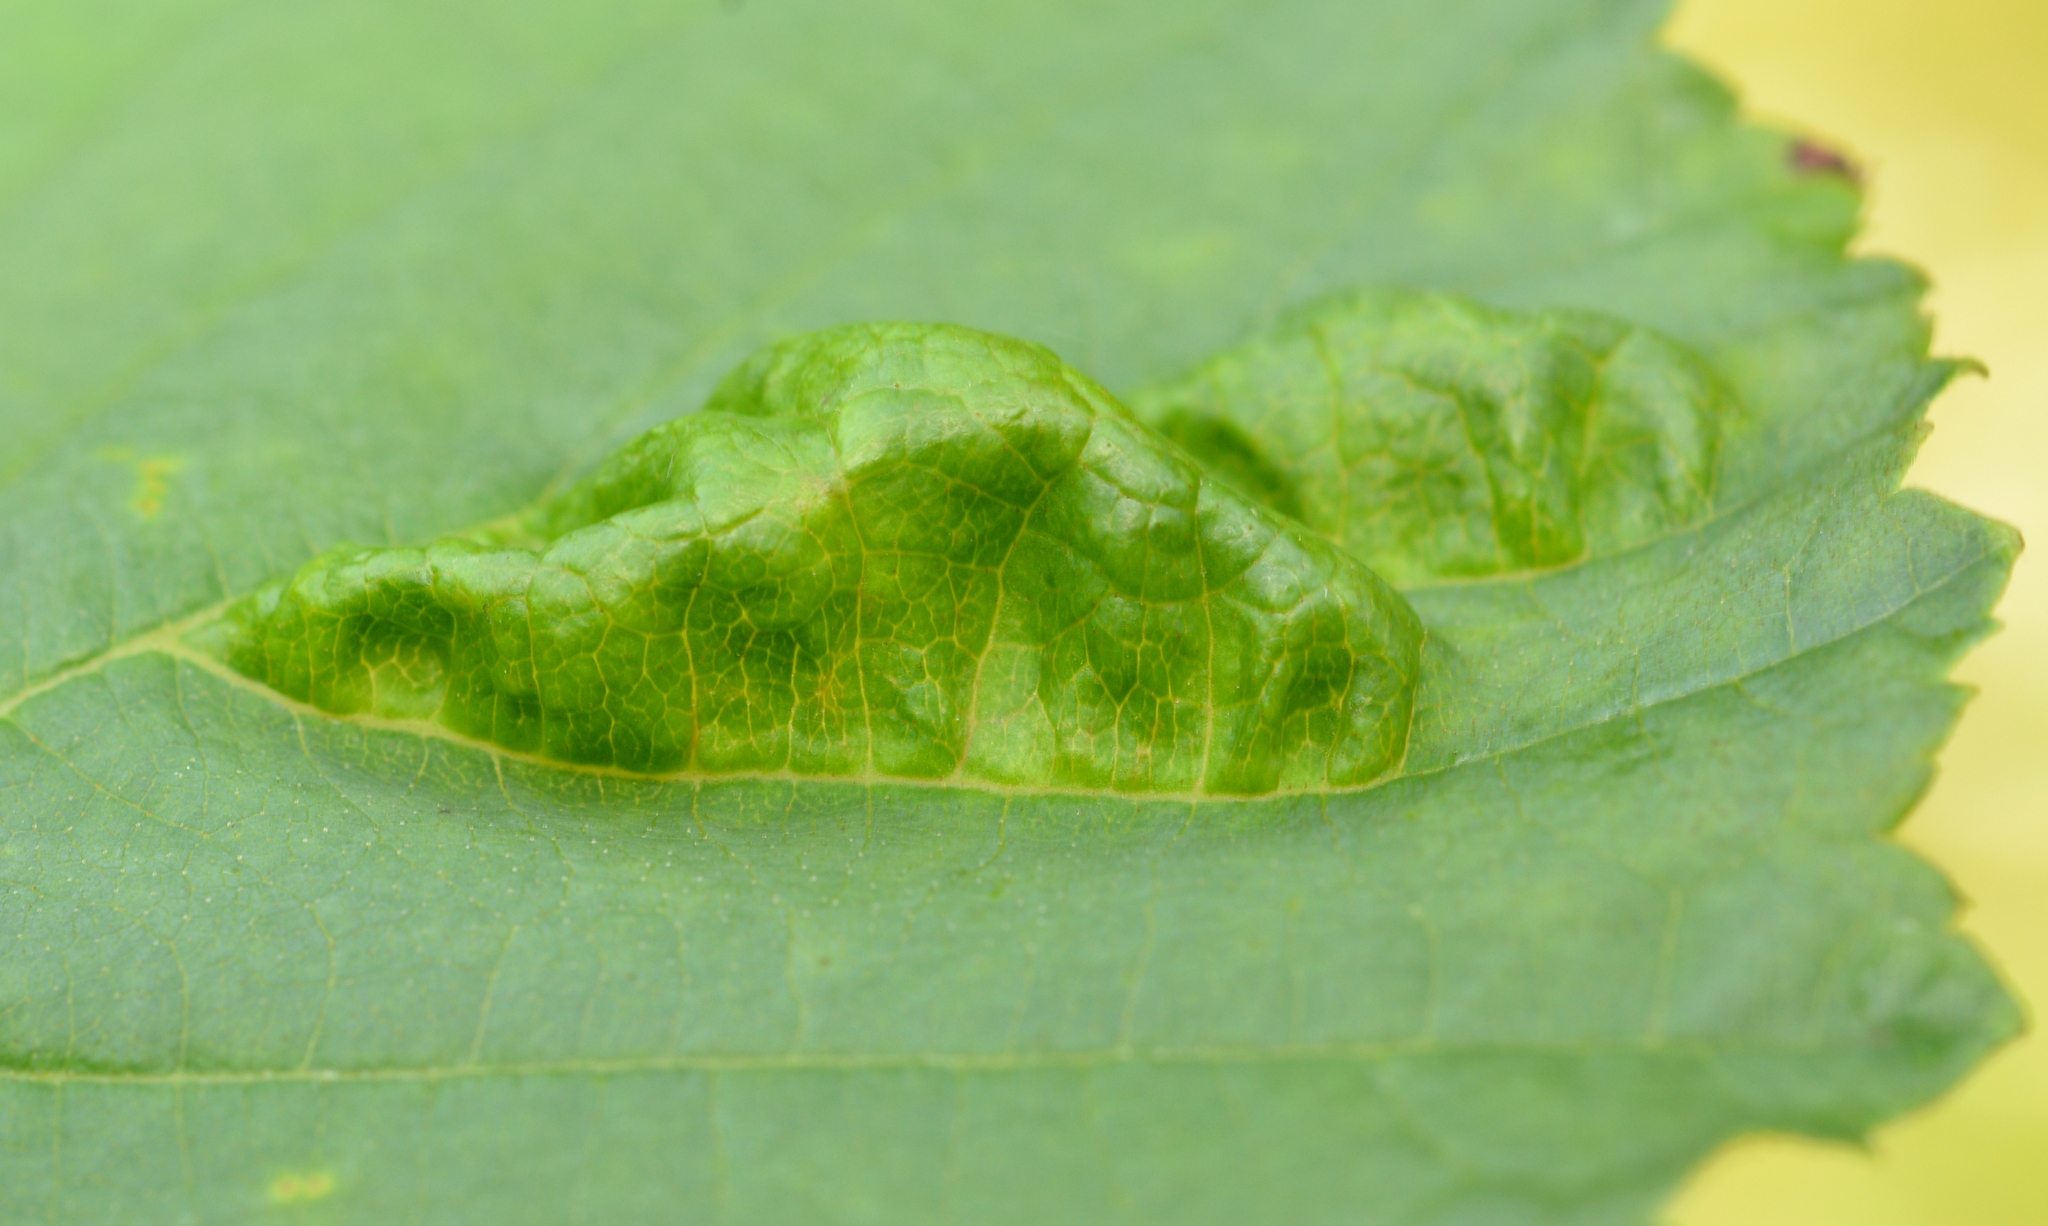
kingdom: Fungi
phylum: Ascomycota
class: Taphrinomycetes
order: Taphrinales
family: Taphrinaceae
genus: Taphrina
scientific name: Taphrina sadebeckii
